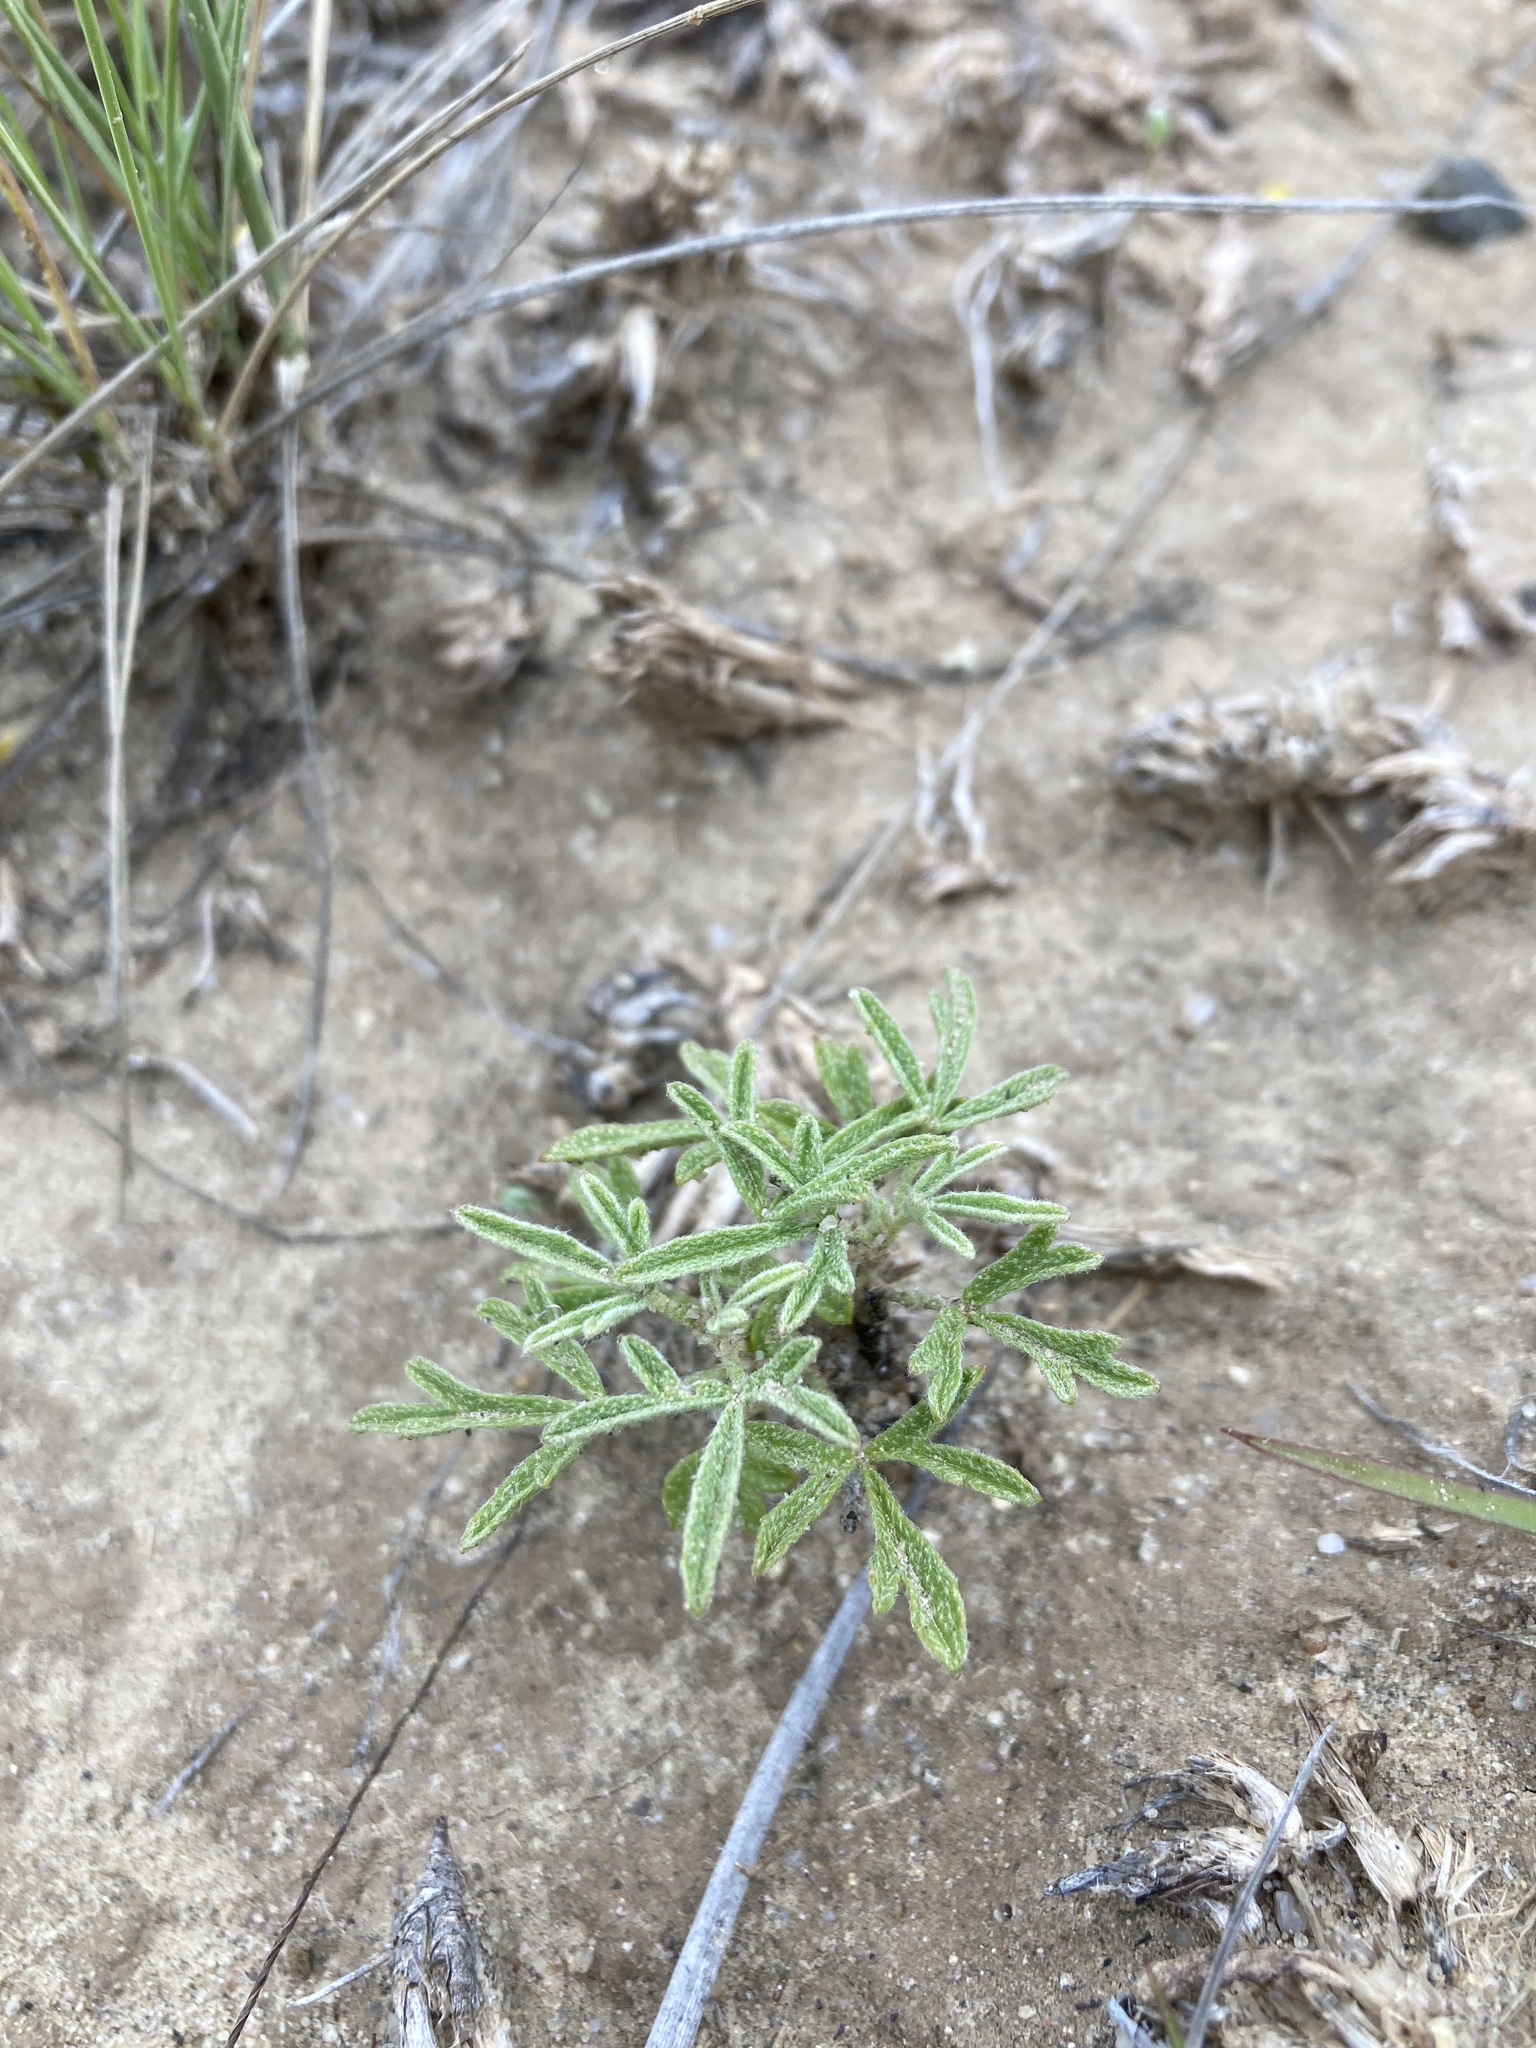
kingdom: Plantae
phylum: Tracheophyta
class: Magnoliopsida
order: Malvales
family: Malvaceae
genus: Sphaeralcea
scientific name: Sphaeralcea coccinea
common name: Moss-rose
